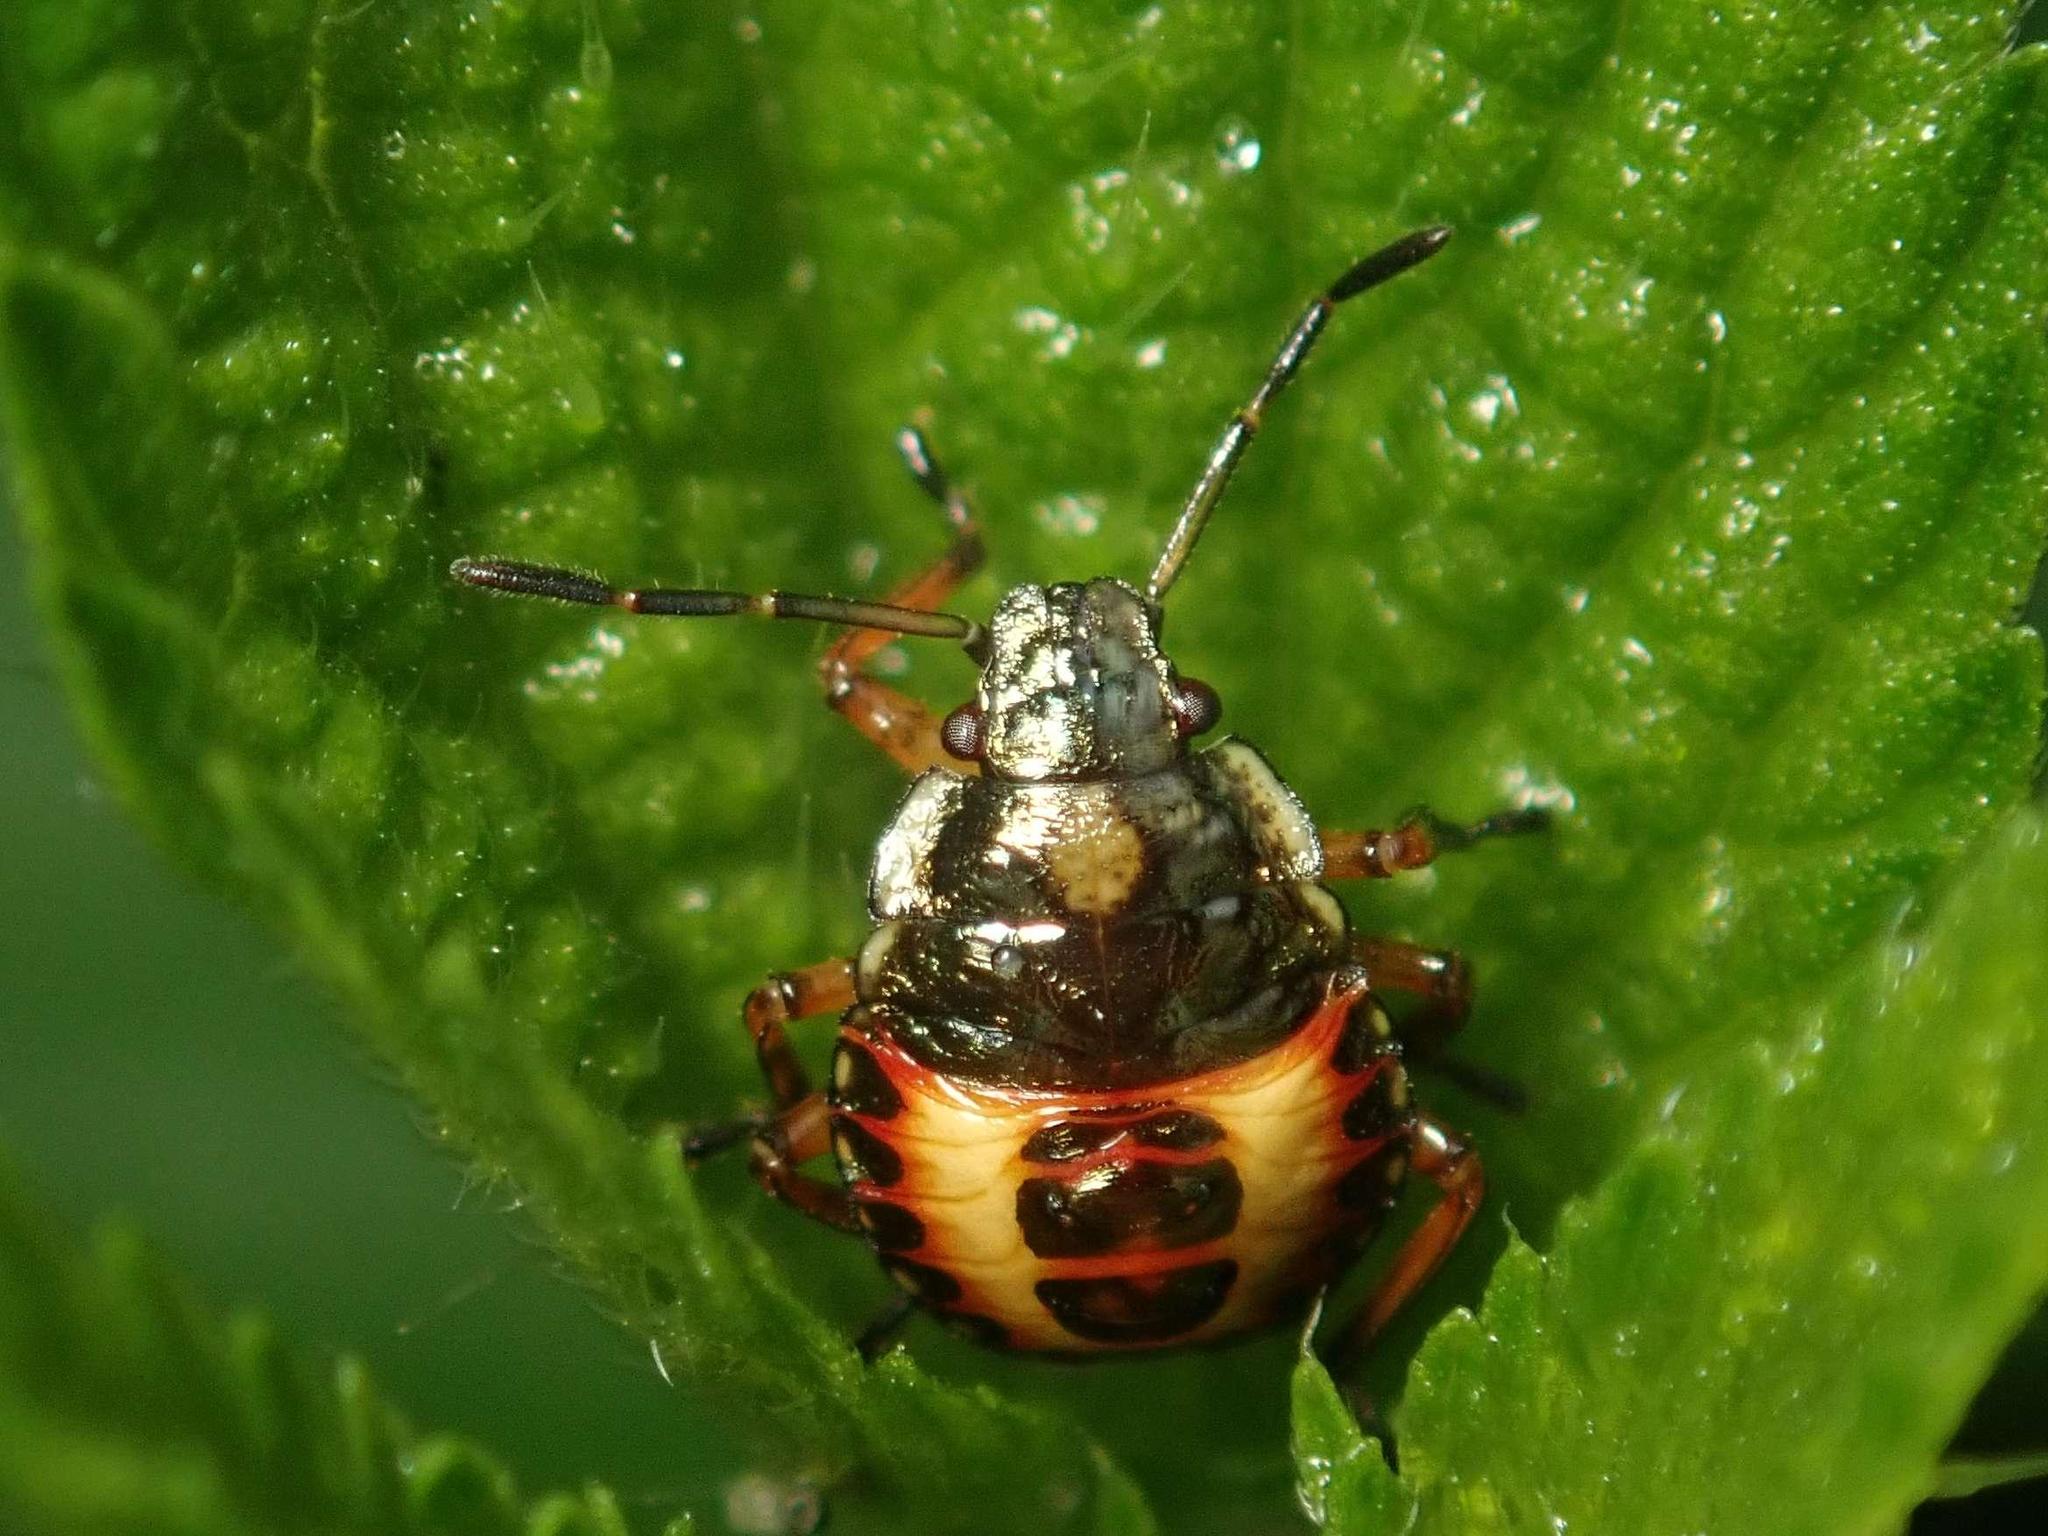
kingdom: Animalia
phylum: Arthropoda
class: Insecta
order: Hemiptera
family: Pentatomidae
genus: Arma
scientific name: Arma custos
